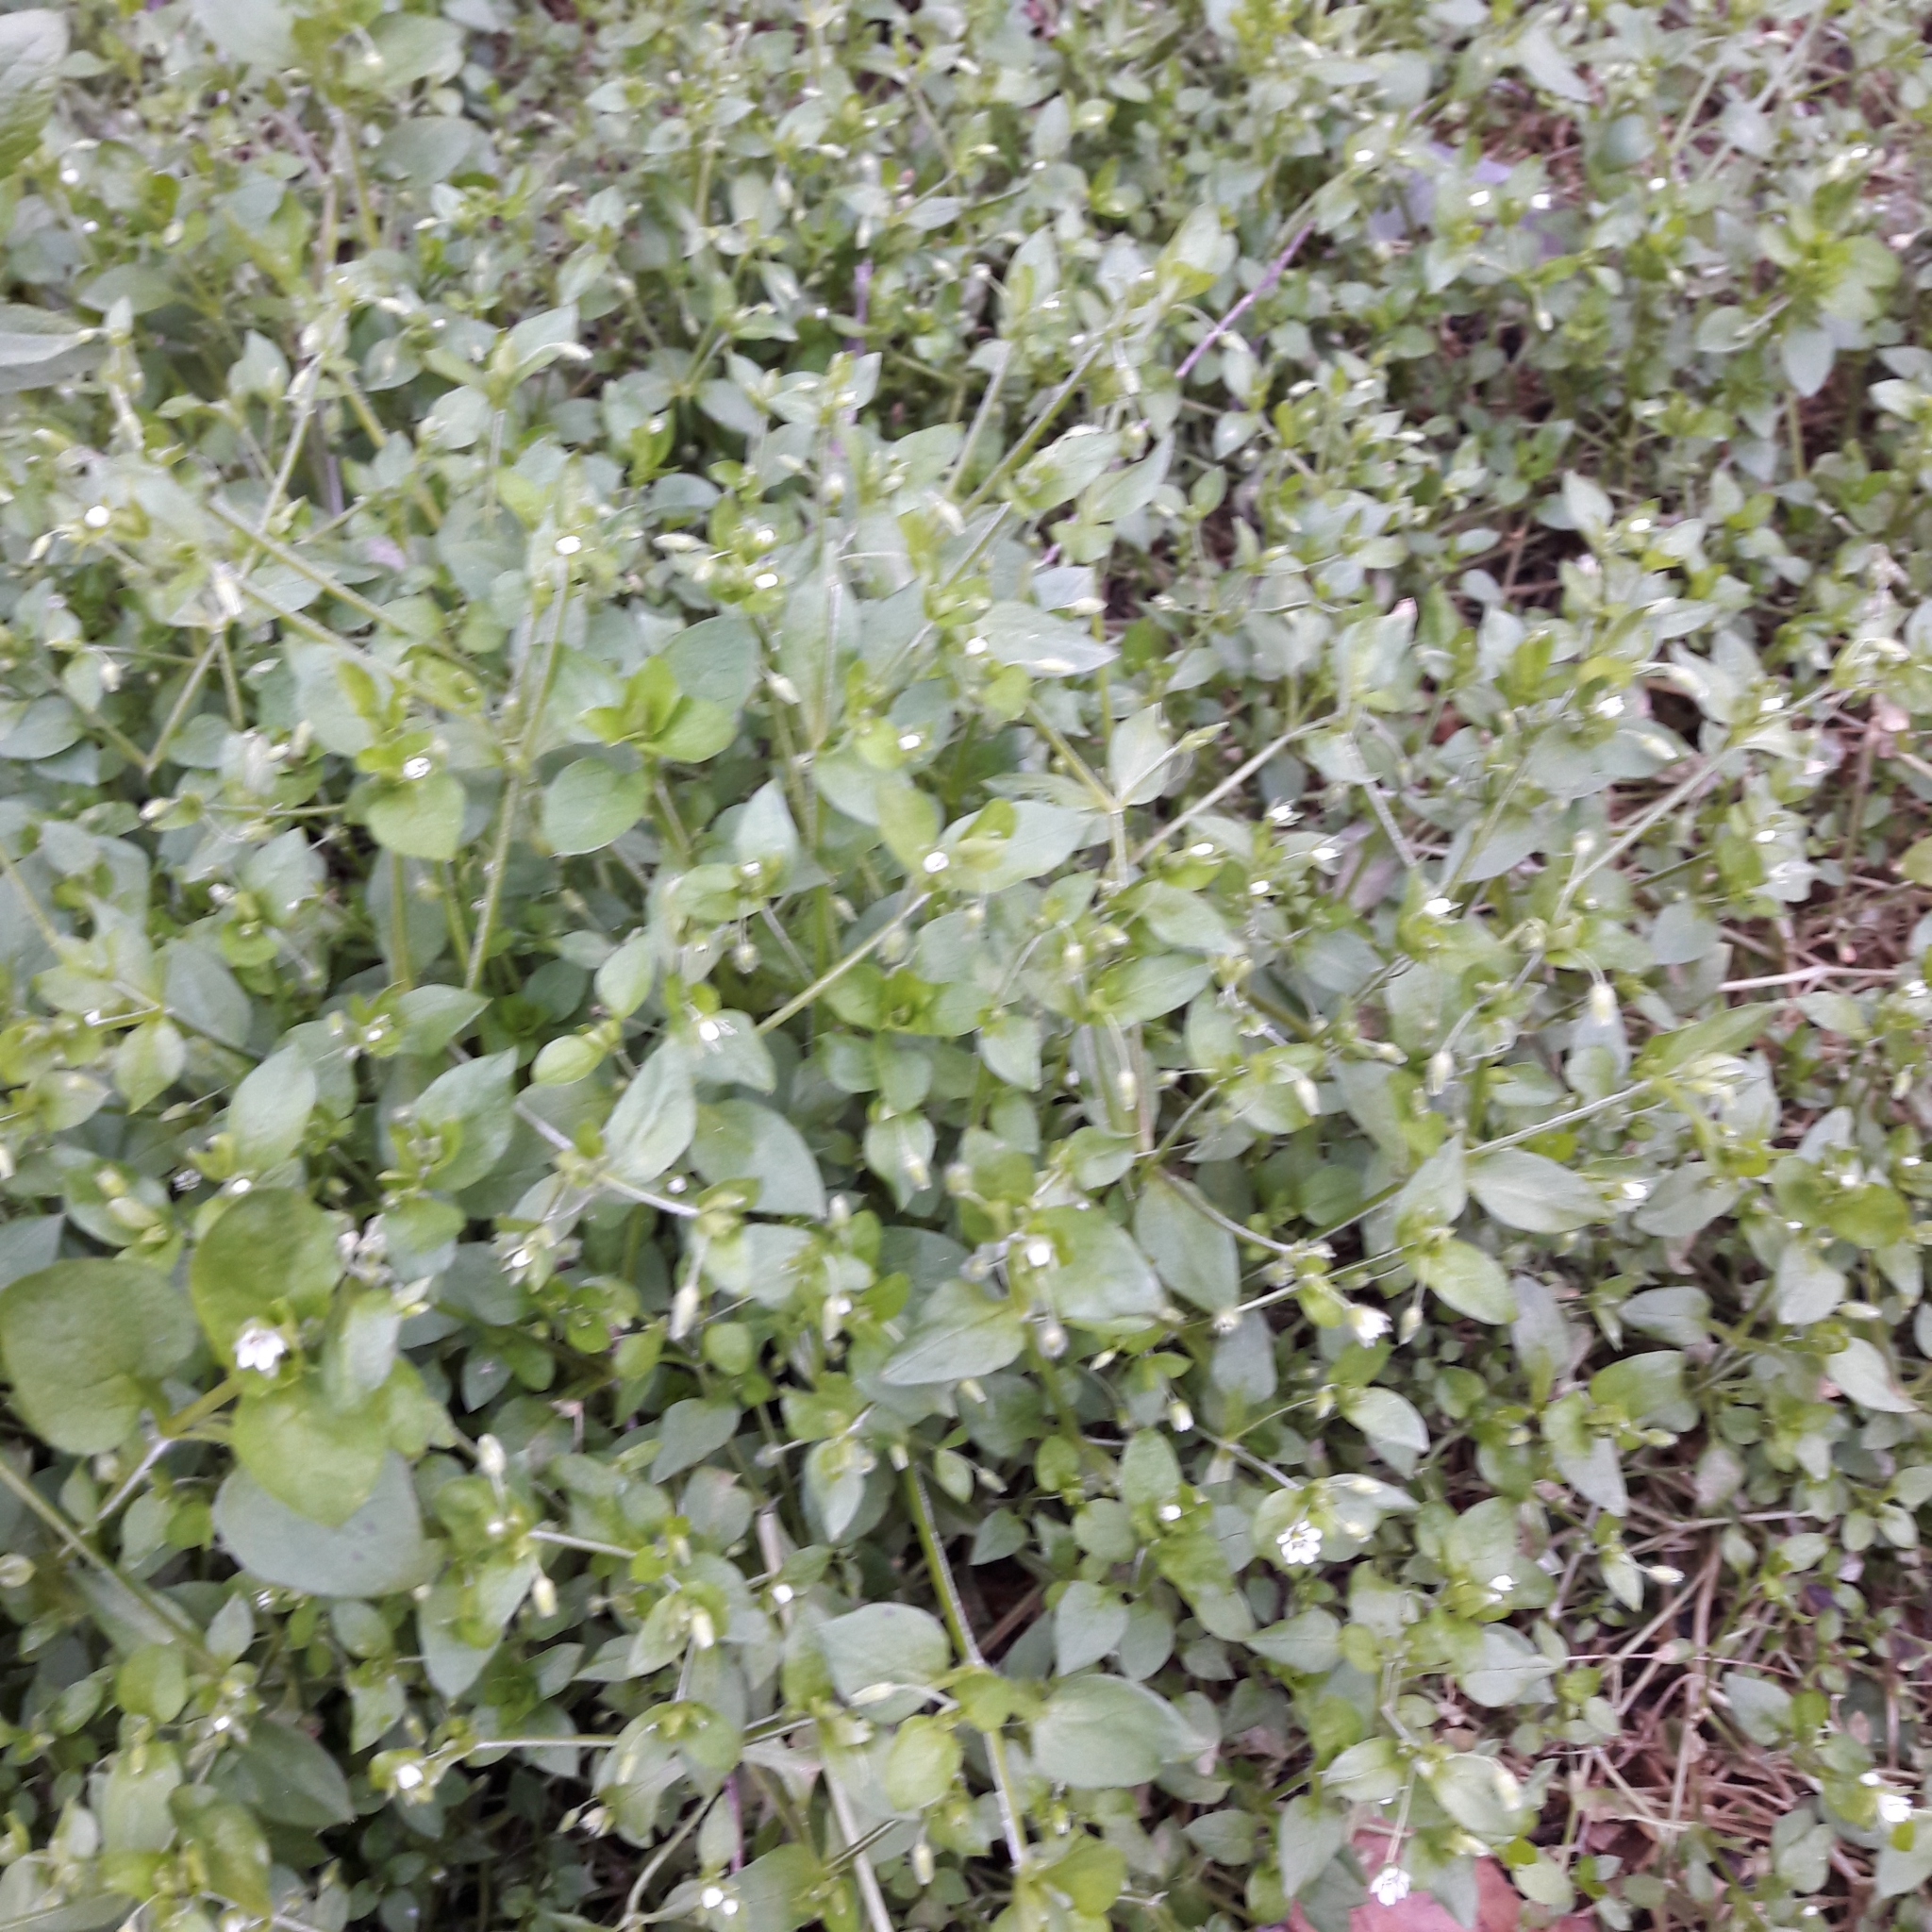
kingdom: Plantae
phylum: Tracheophyta
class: Magnoliopsida
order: Caryophyllales
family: Caryophyllaceae
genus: Stellaria
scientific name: Stellaria media
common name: Common chickweed
